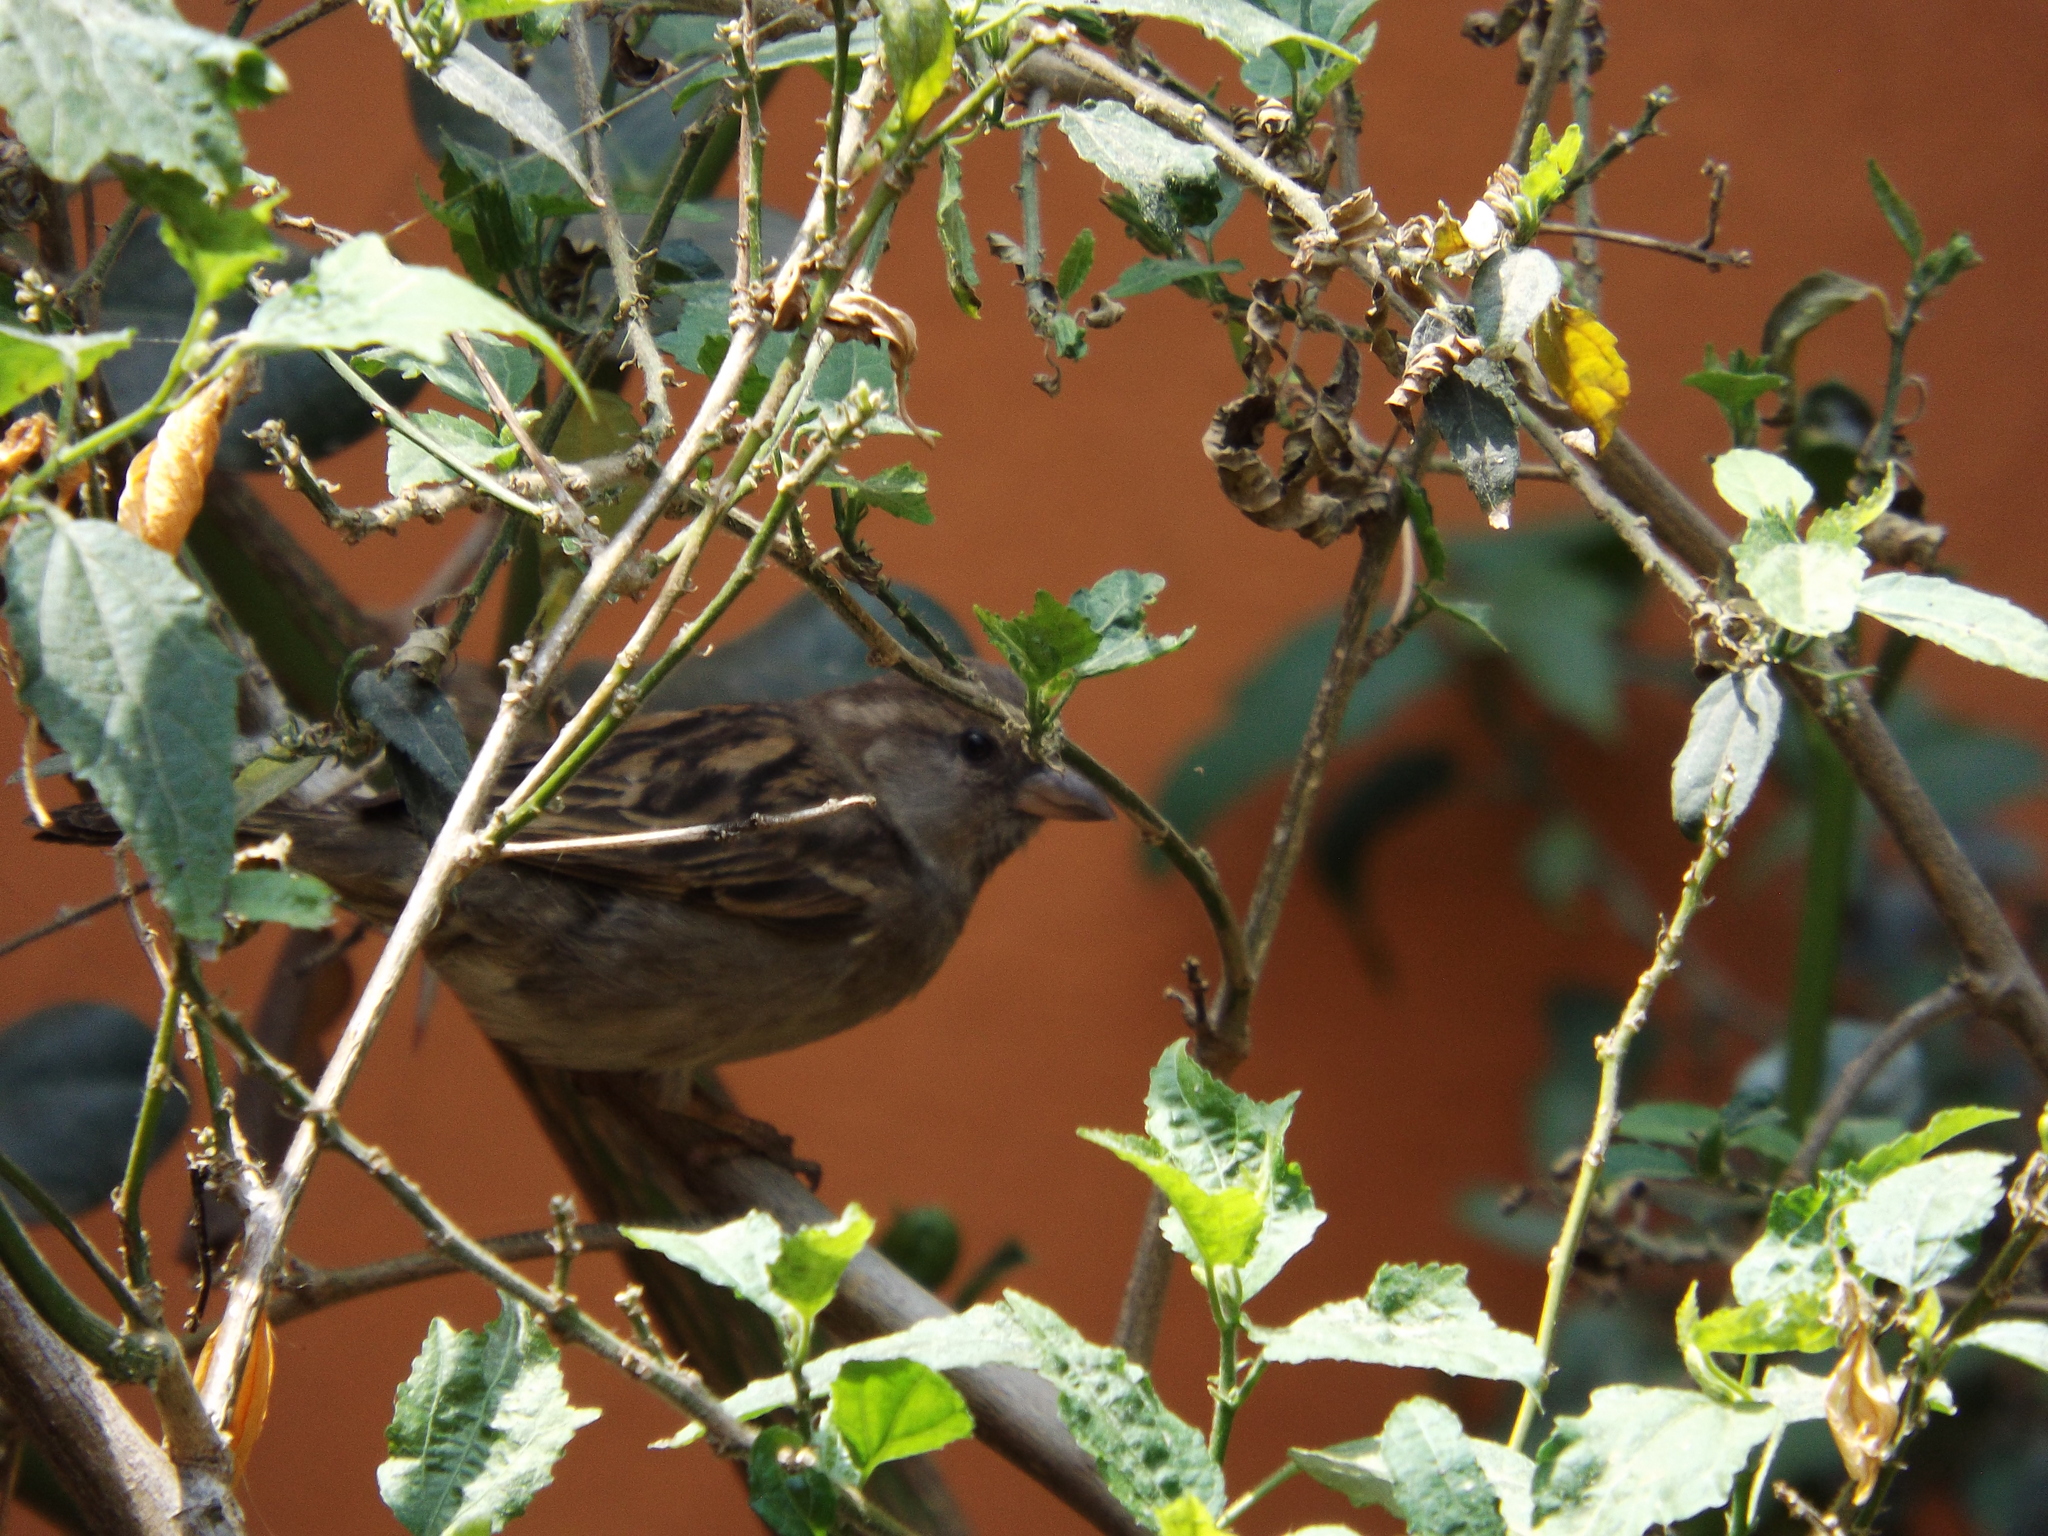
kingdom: Animalia
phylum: Chordata
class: Aves
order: Passeriformes
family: Passeridae
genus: Passer
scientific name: Passer domesticus
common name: House sparrow
